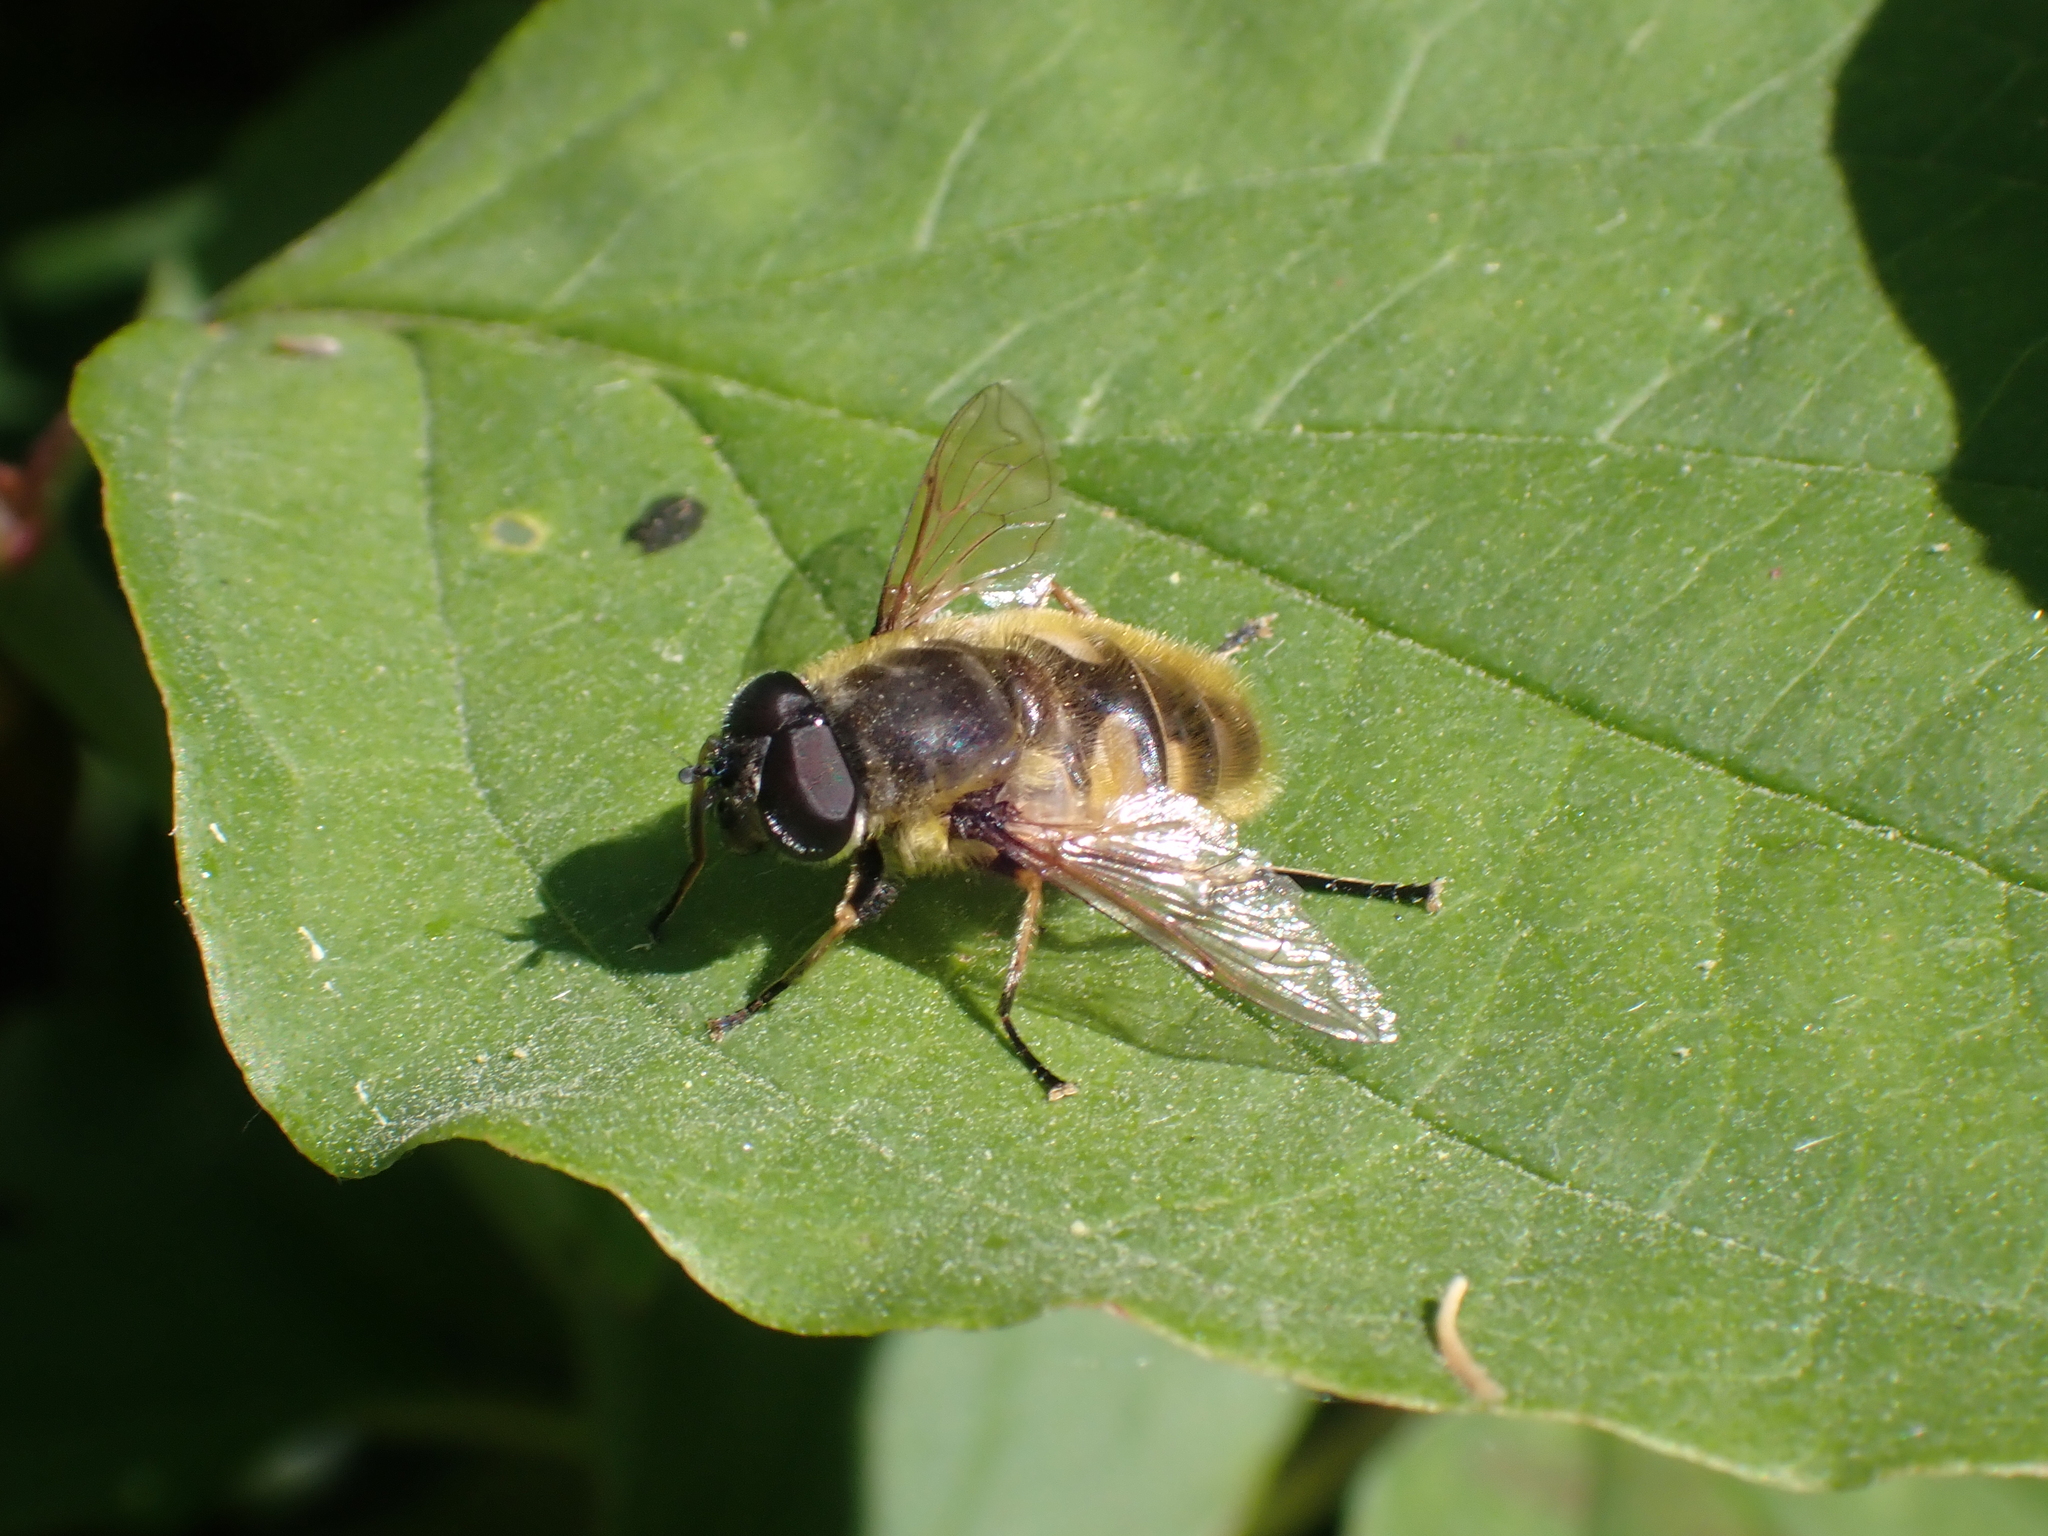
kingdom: Animalia
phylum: Arthropoda
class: Insecta
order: Diptera
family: Syrphidae
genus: Myathropa
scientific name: Myathropa florea
